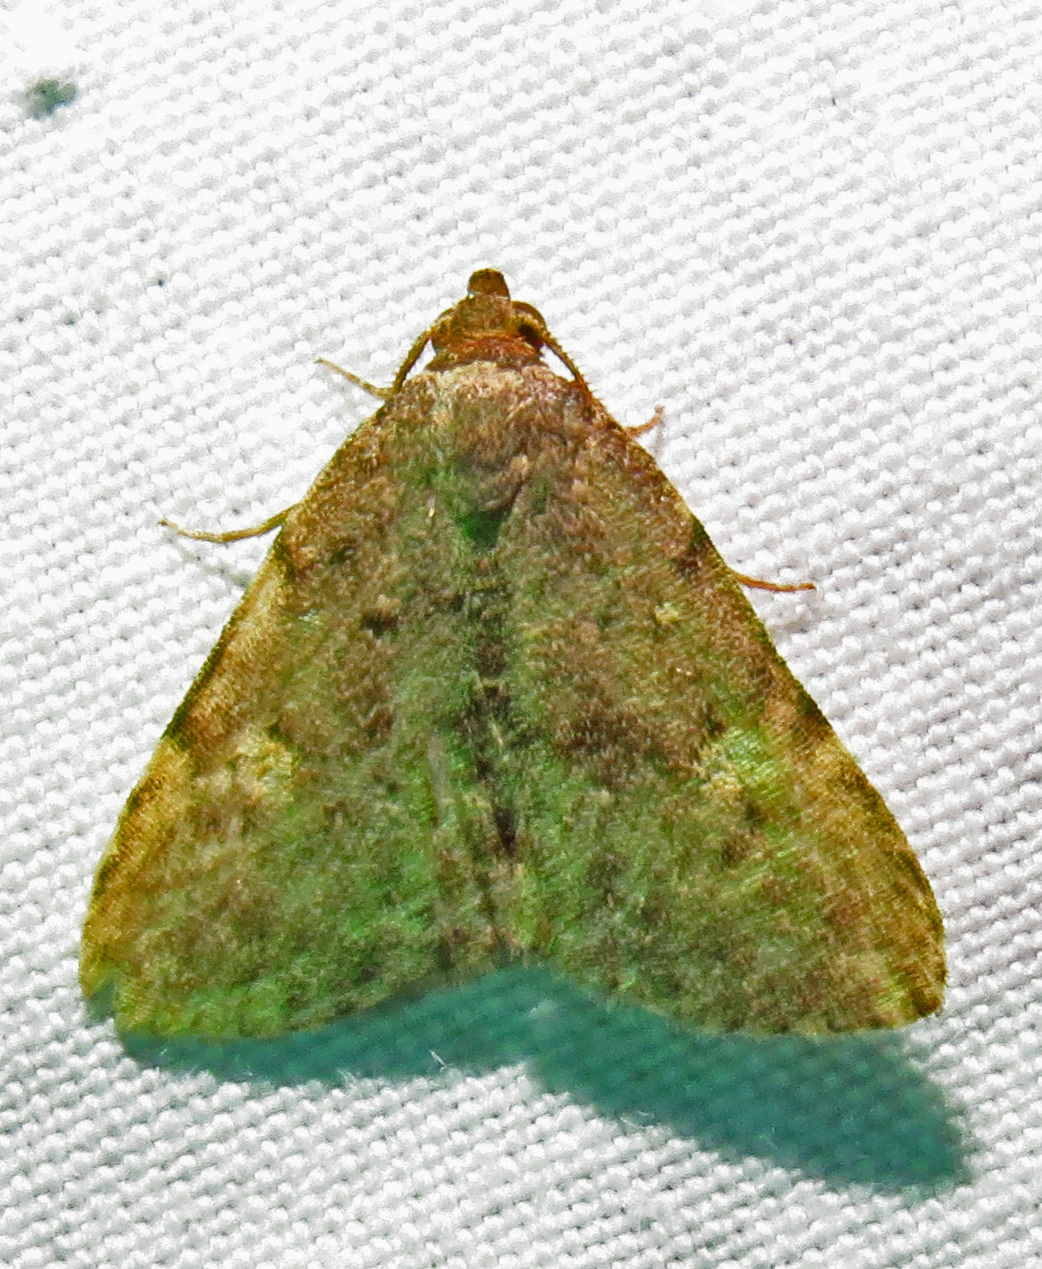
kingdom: Animalia
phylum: Arthropoda
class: Insecta
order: Lepidoptera
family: Erebidae
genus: Idia
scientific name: Idia aemula
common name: Common idia moth
